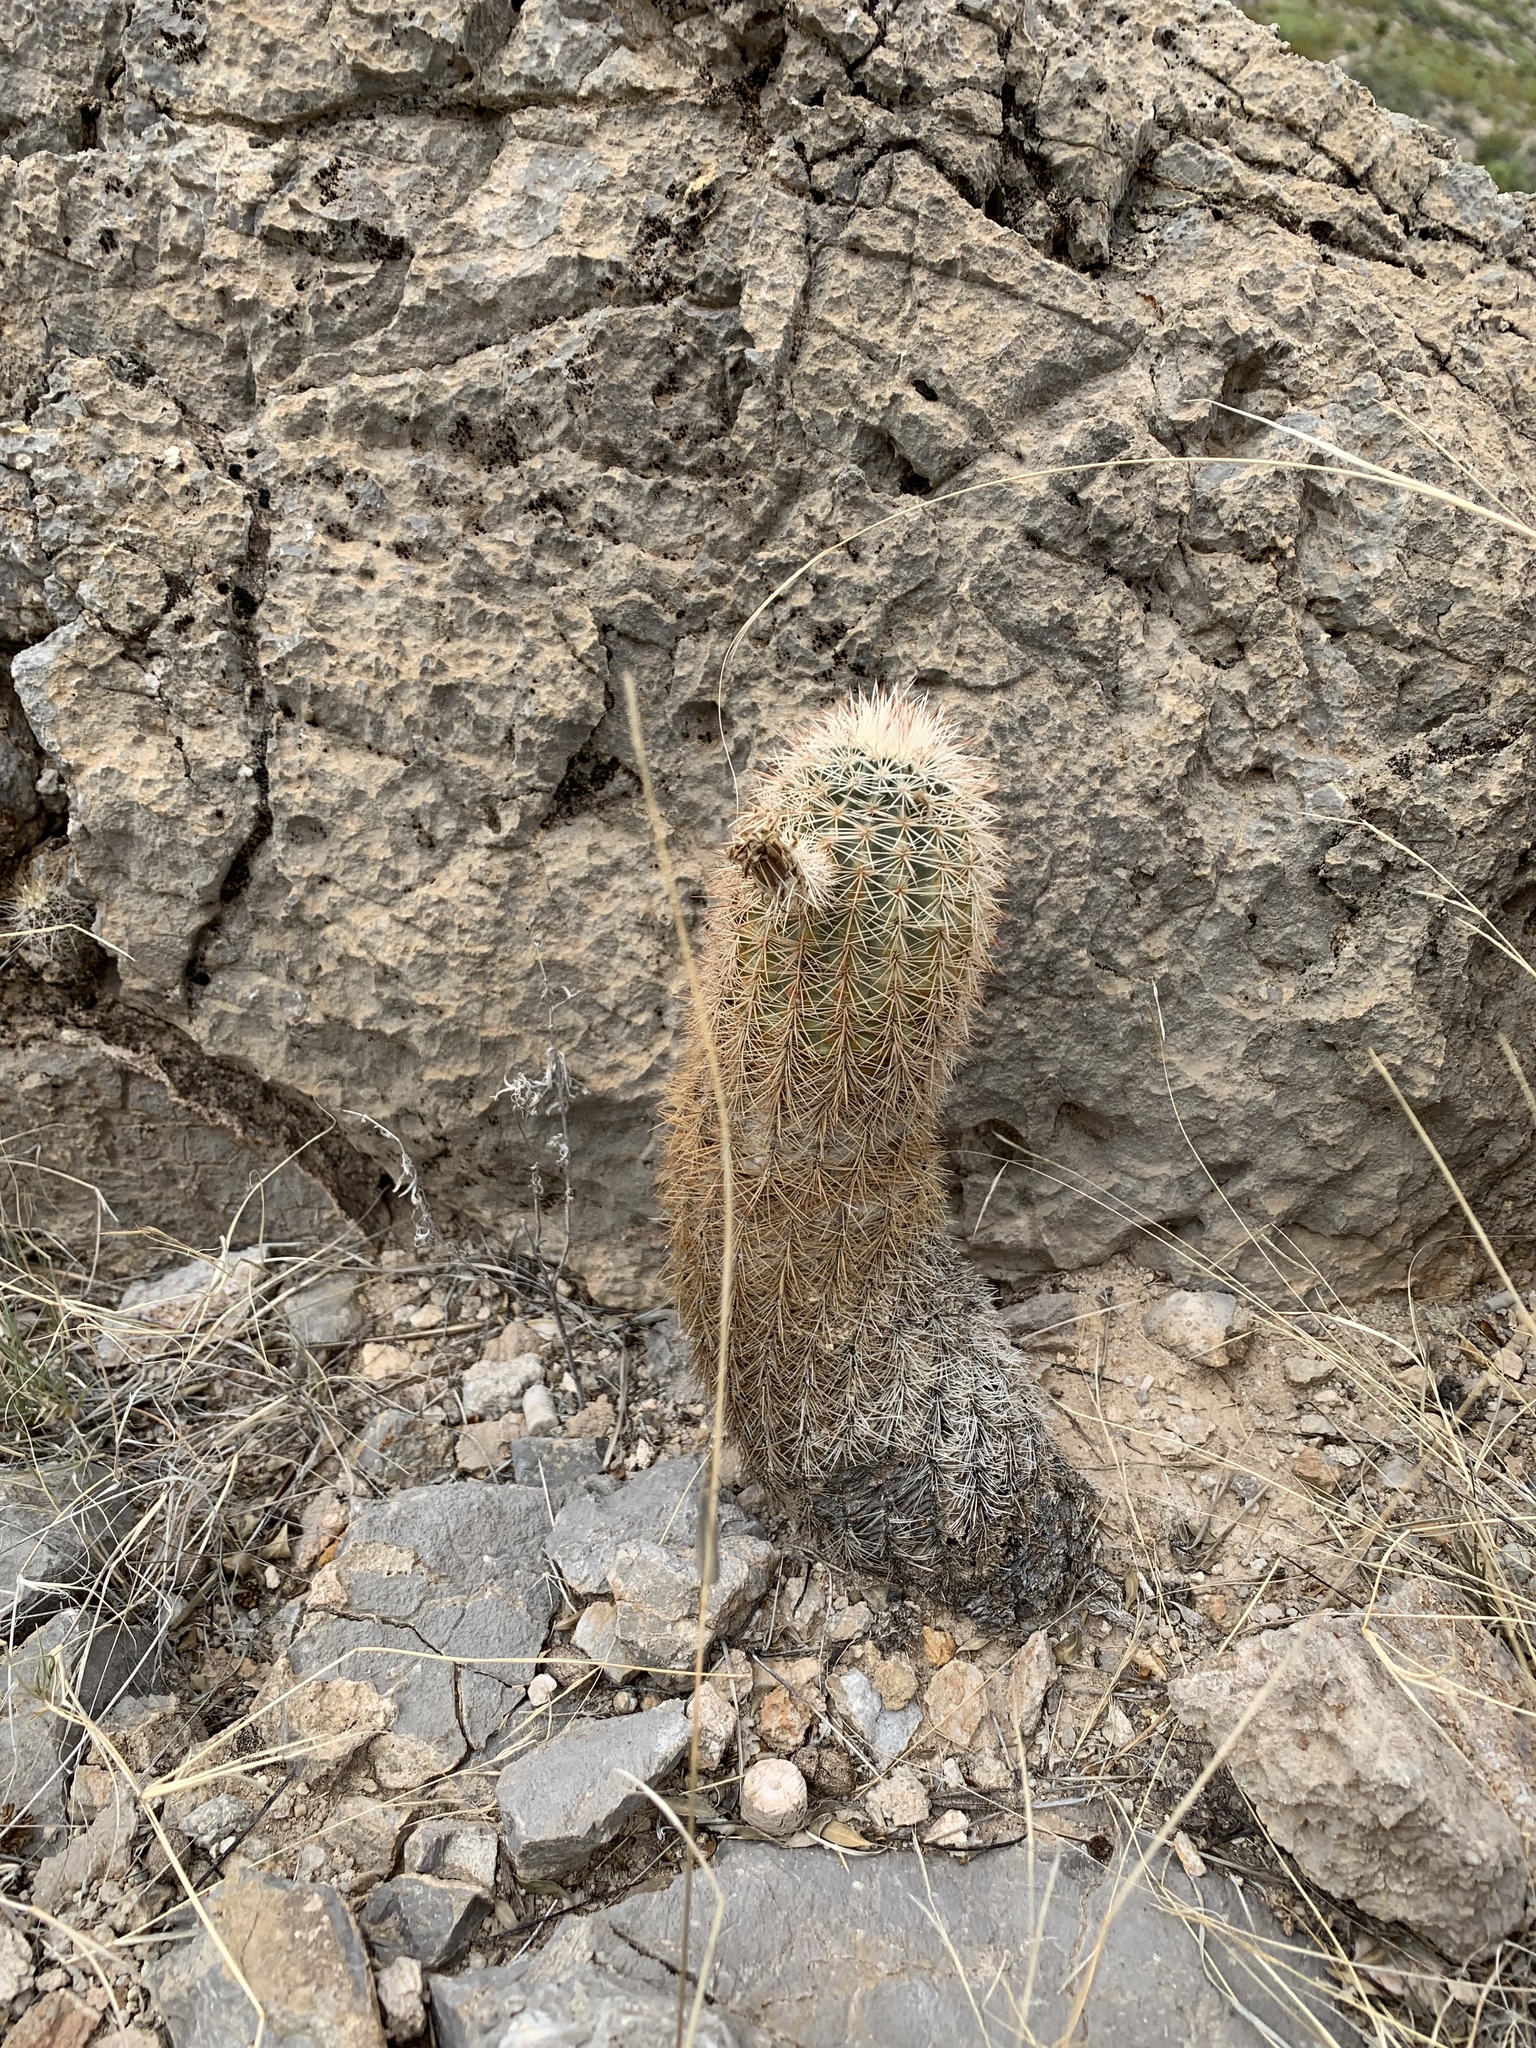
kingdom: Plantae
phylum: Tracheophyta
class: Magnoliopsida
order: Caryophyllales
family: Cactaceae
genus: Echinocereus
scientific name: Echinocereus dasyacanthus
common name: Spiny hedgehog cactus
